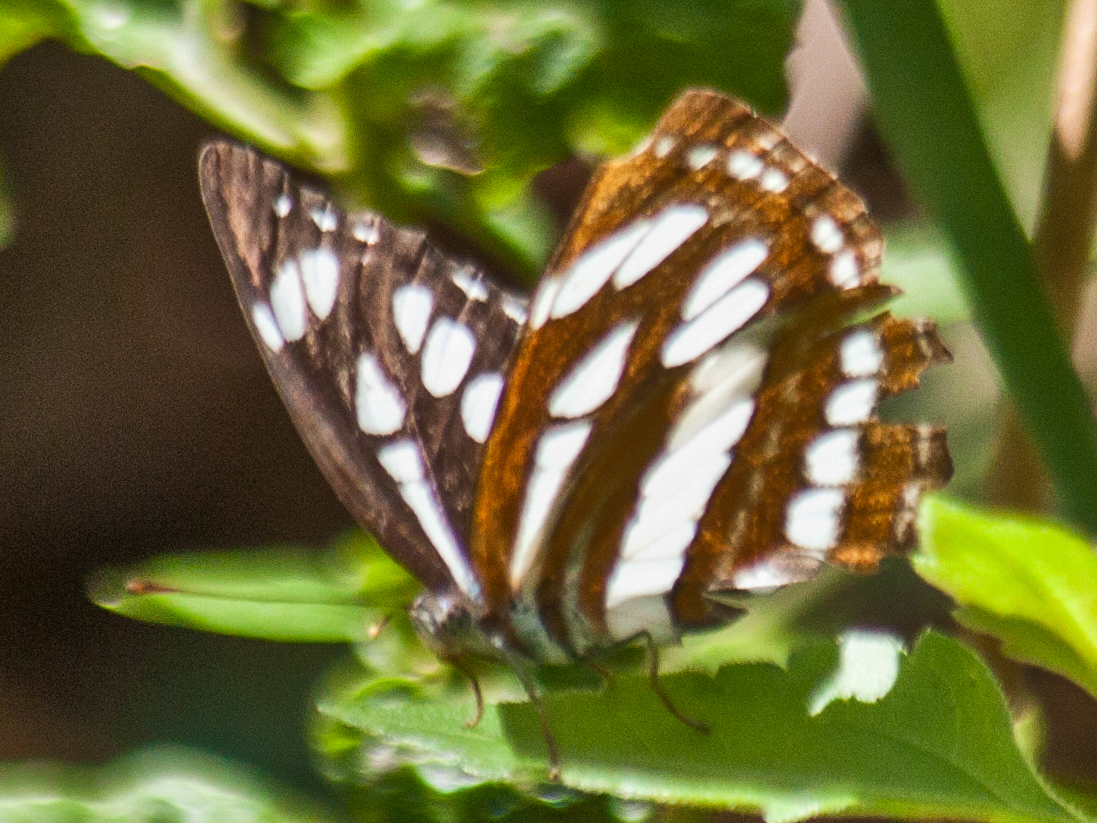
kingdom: Animalia
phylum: Arthropoda
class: Insecta
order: Lepidoptera
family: Nymphalidae
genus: Neptis
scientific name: Neptis hylas
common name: Common sailer
